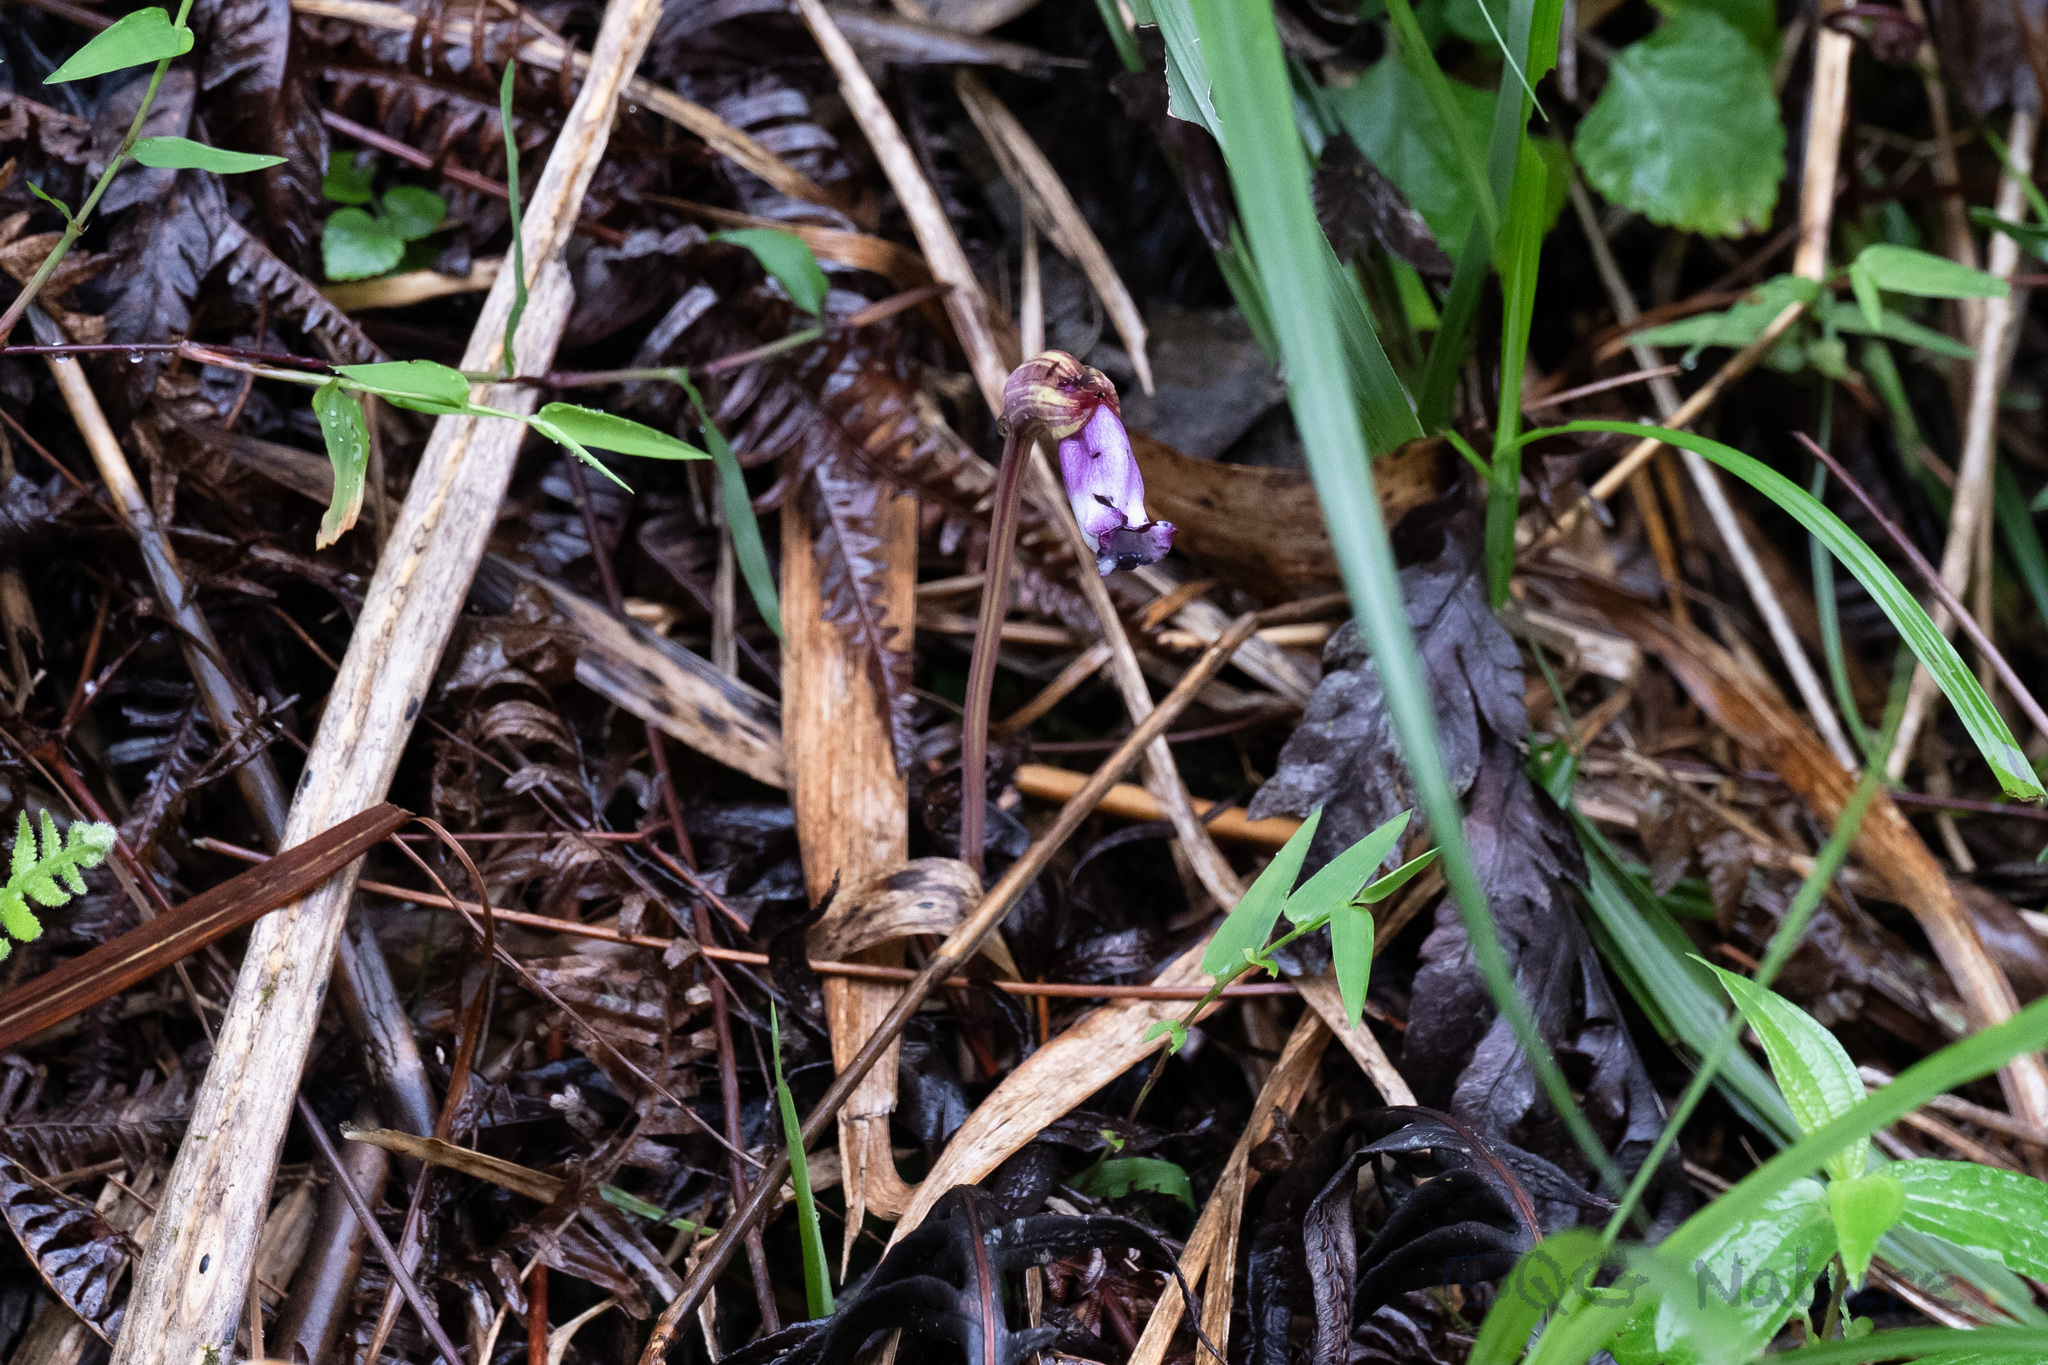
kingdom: Plantae
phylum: Tracheophyta
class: Magnoliopsida
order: Lamiales
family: Orobanchaceae
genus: Aeginetia
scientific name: Aeginetia indica
